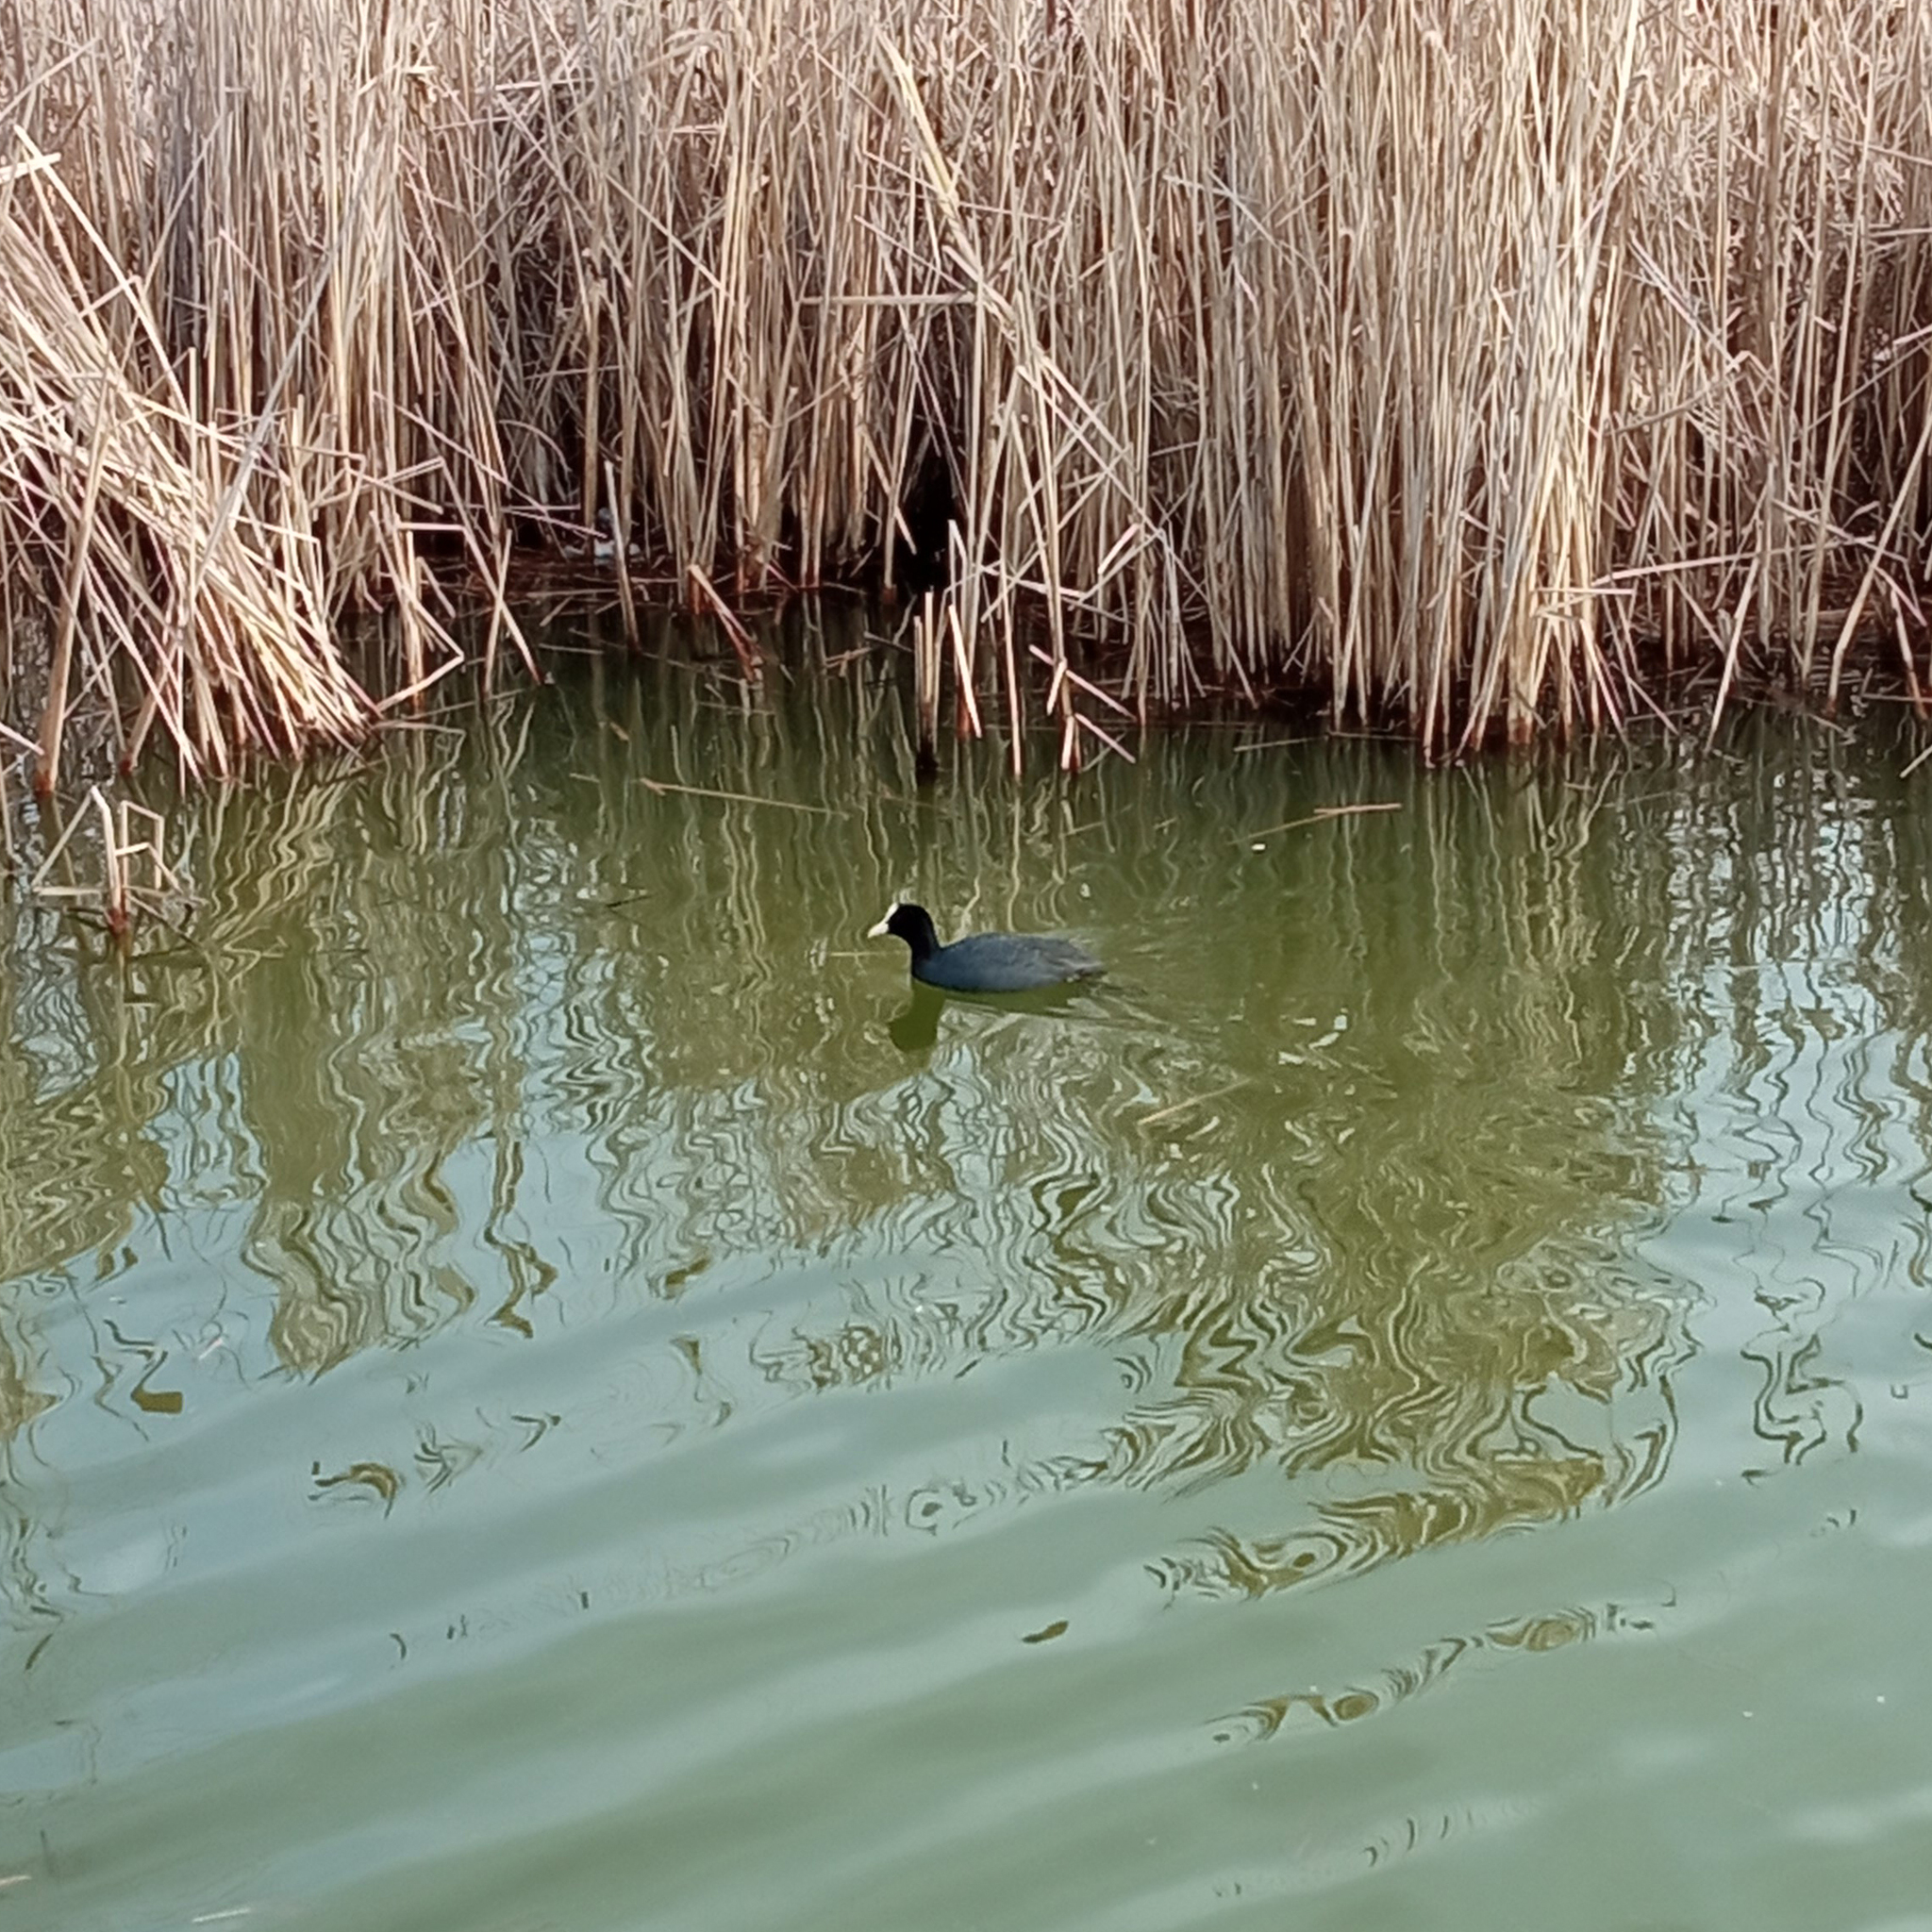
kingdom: Animalia
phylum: Chordata
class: Aves
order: Gruiformes
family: Rallidae
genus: Fulica
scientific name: Fulica atra
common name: Eurasian coot
